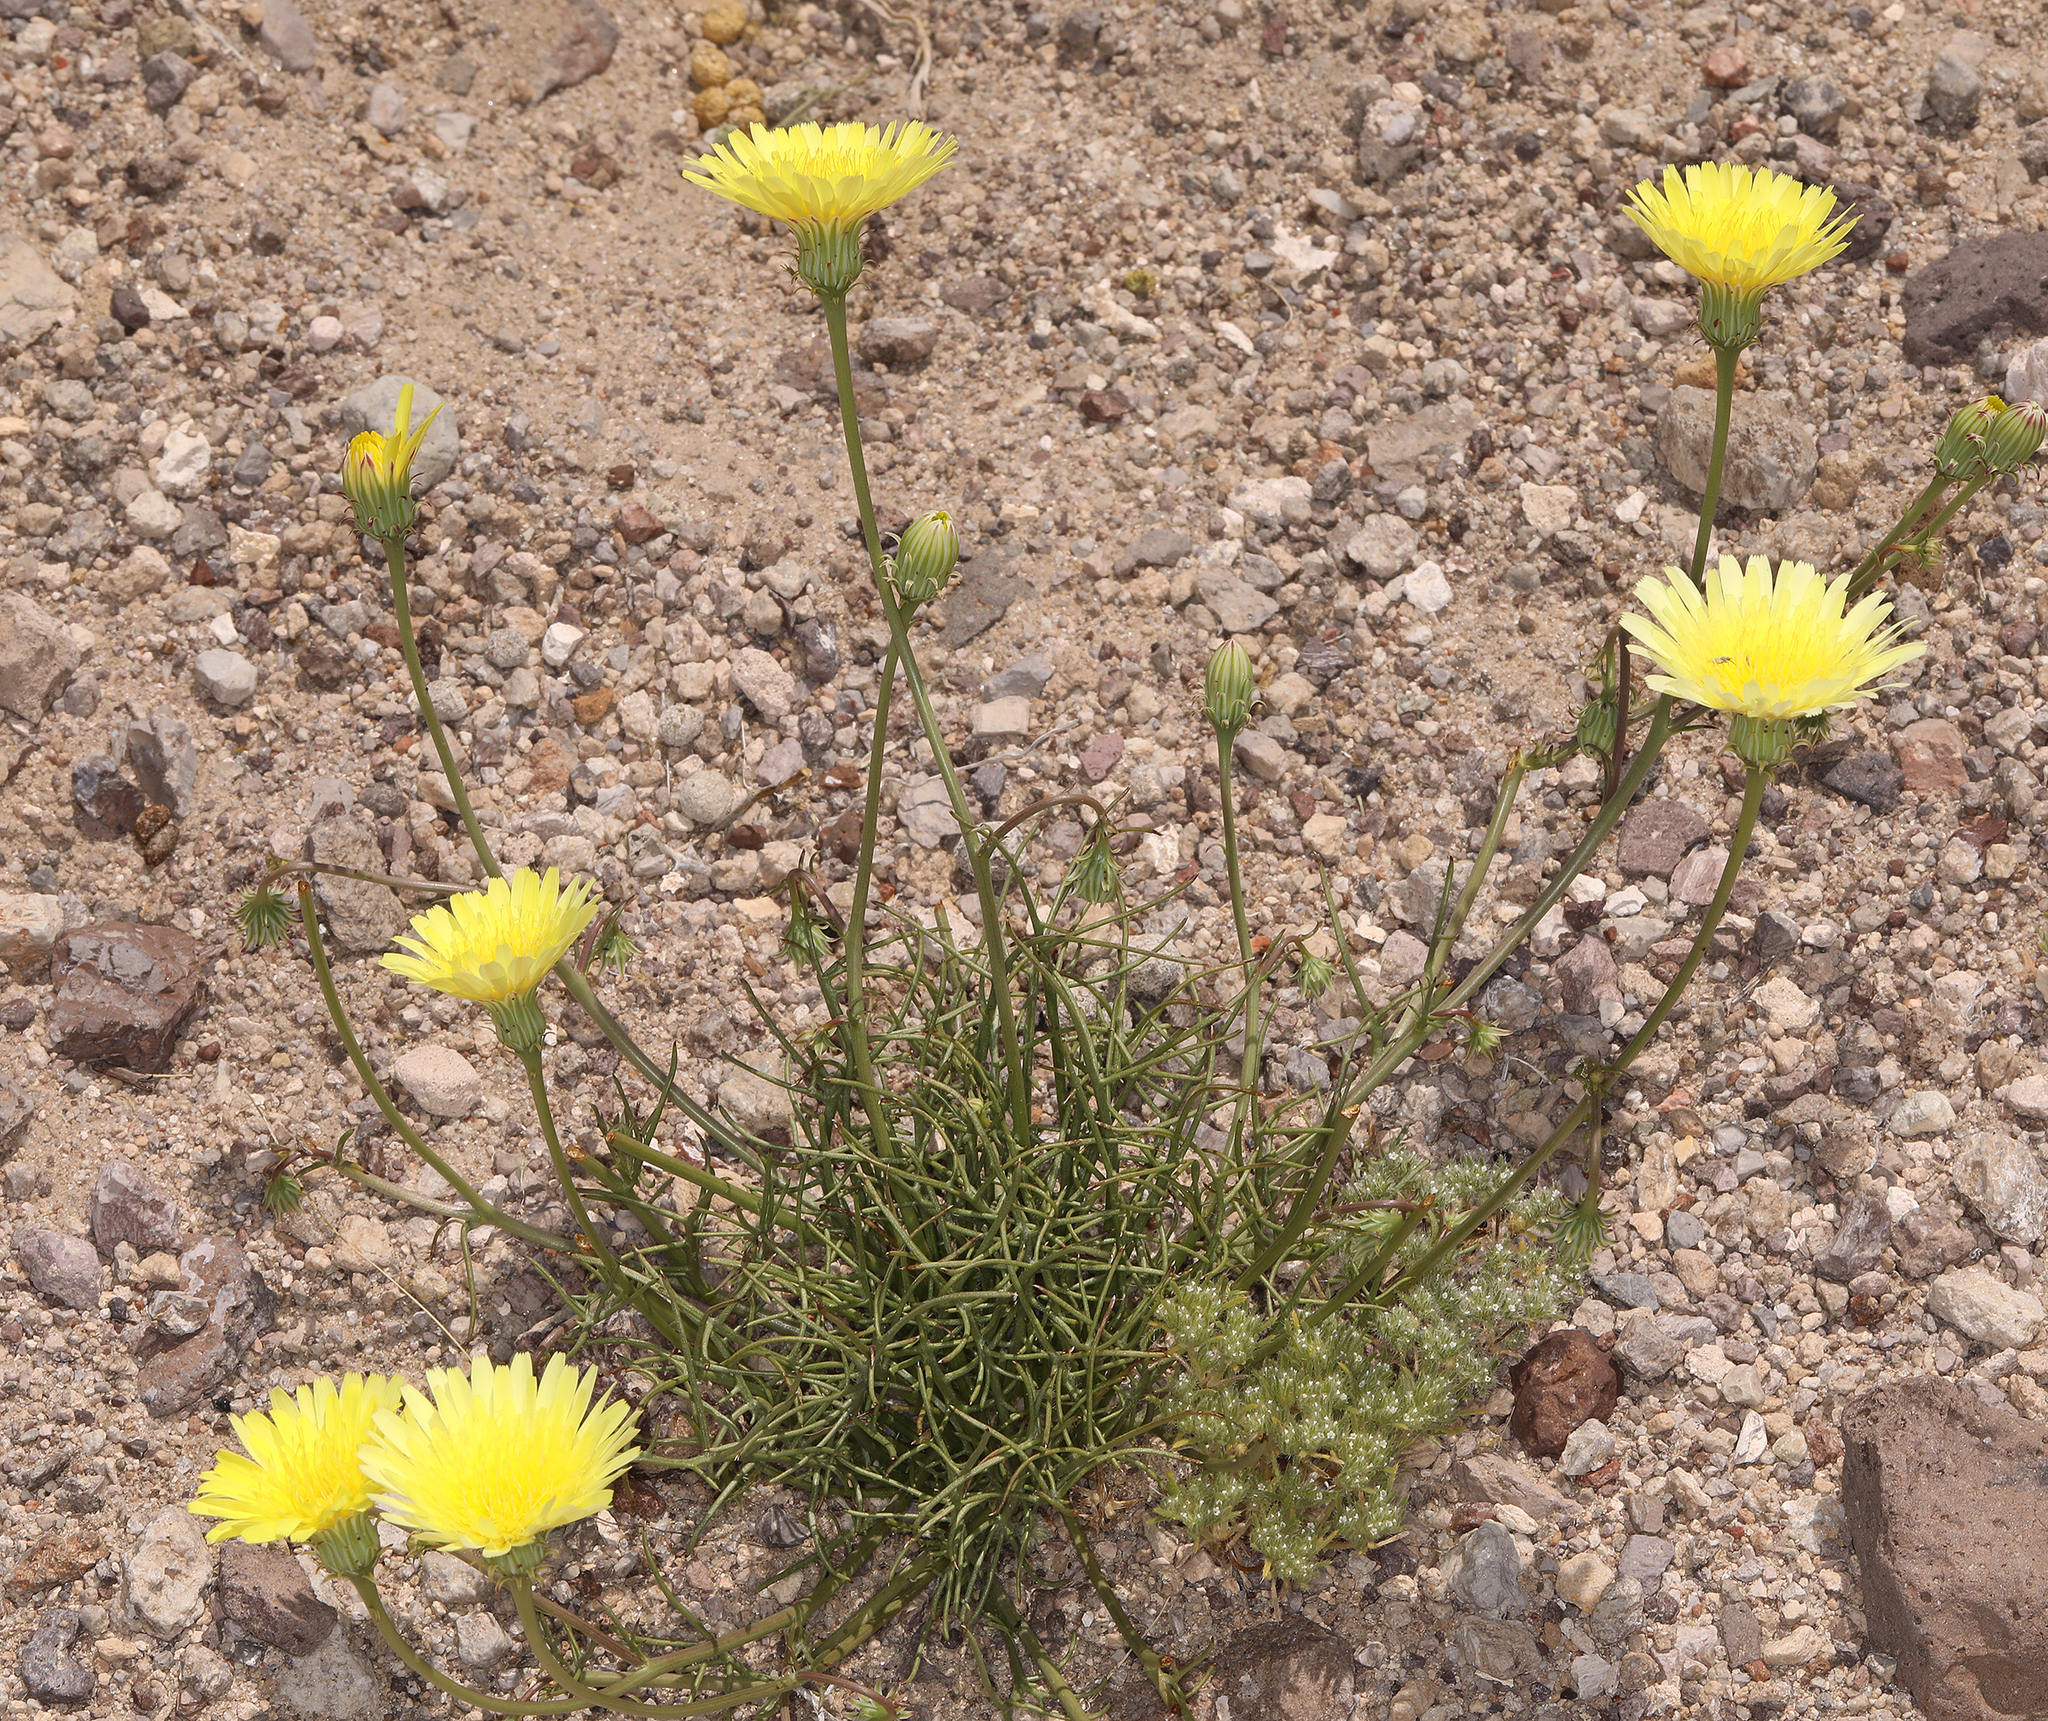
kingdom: Plantae
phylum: Tracheophyta
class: Magnoliopsida
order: Asterales
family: Asteraceae
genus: Malacothrix
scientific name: Malacothrix glabrata
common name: Smooth desert-dandelion
